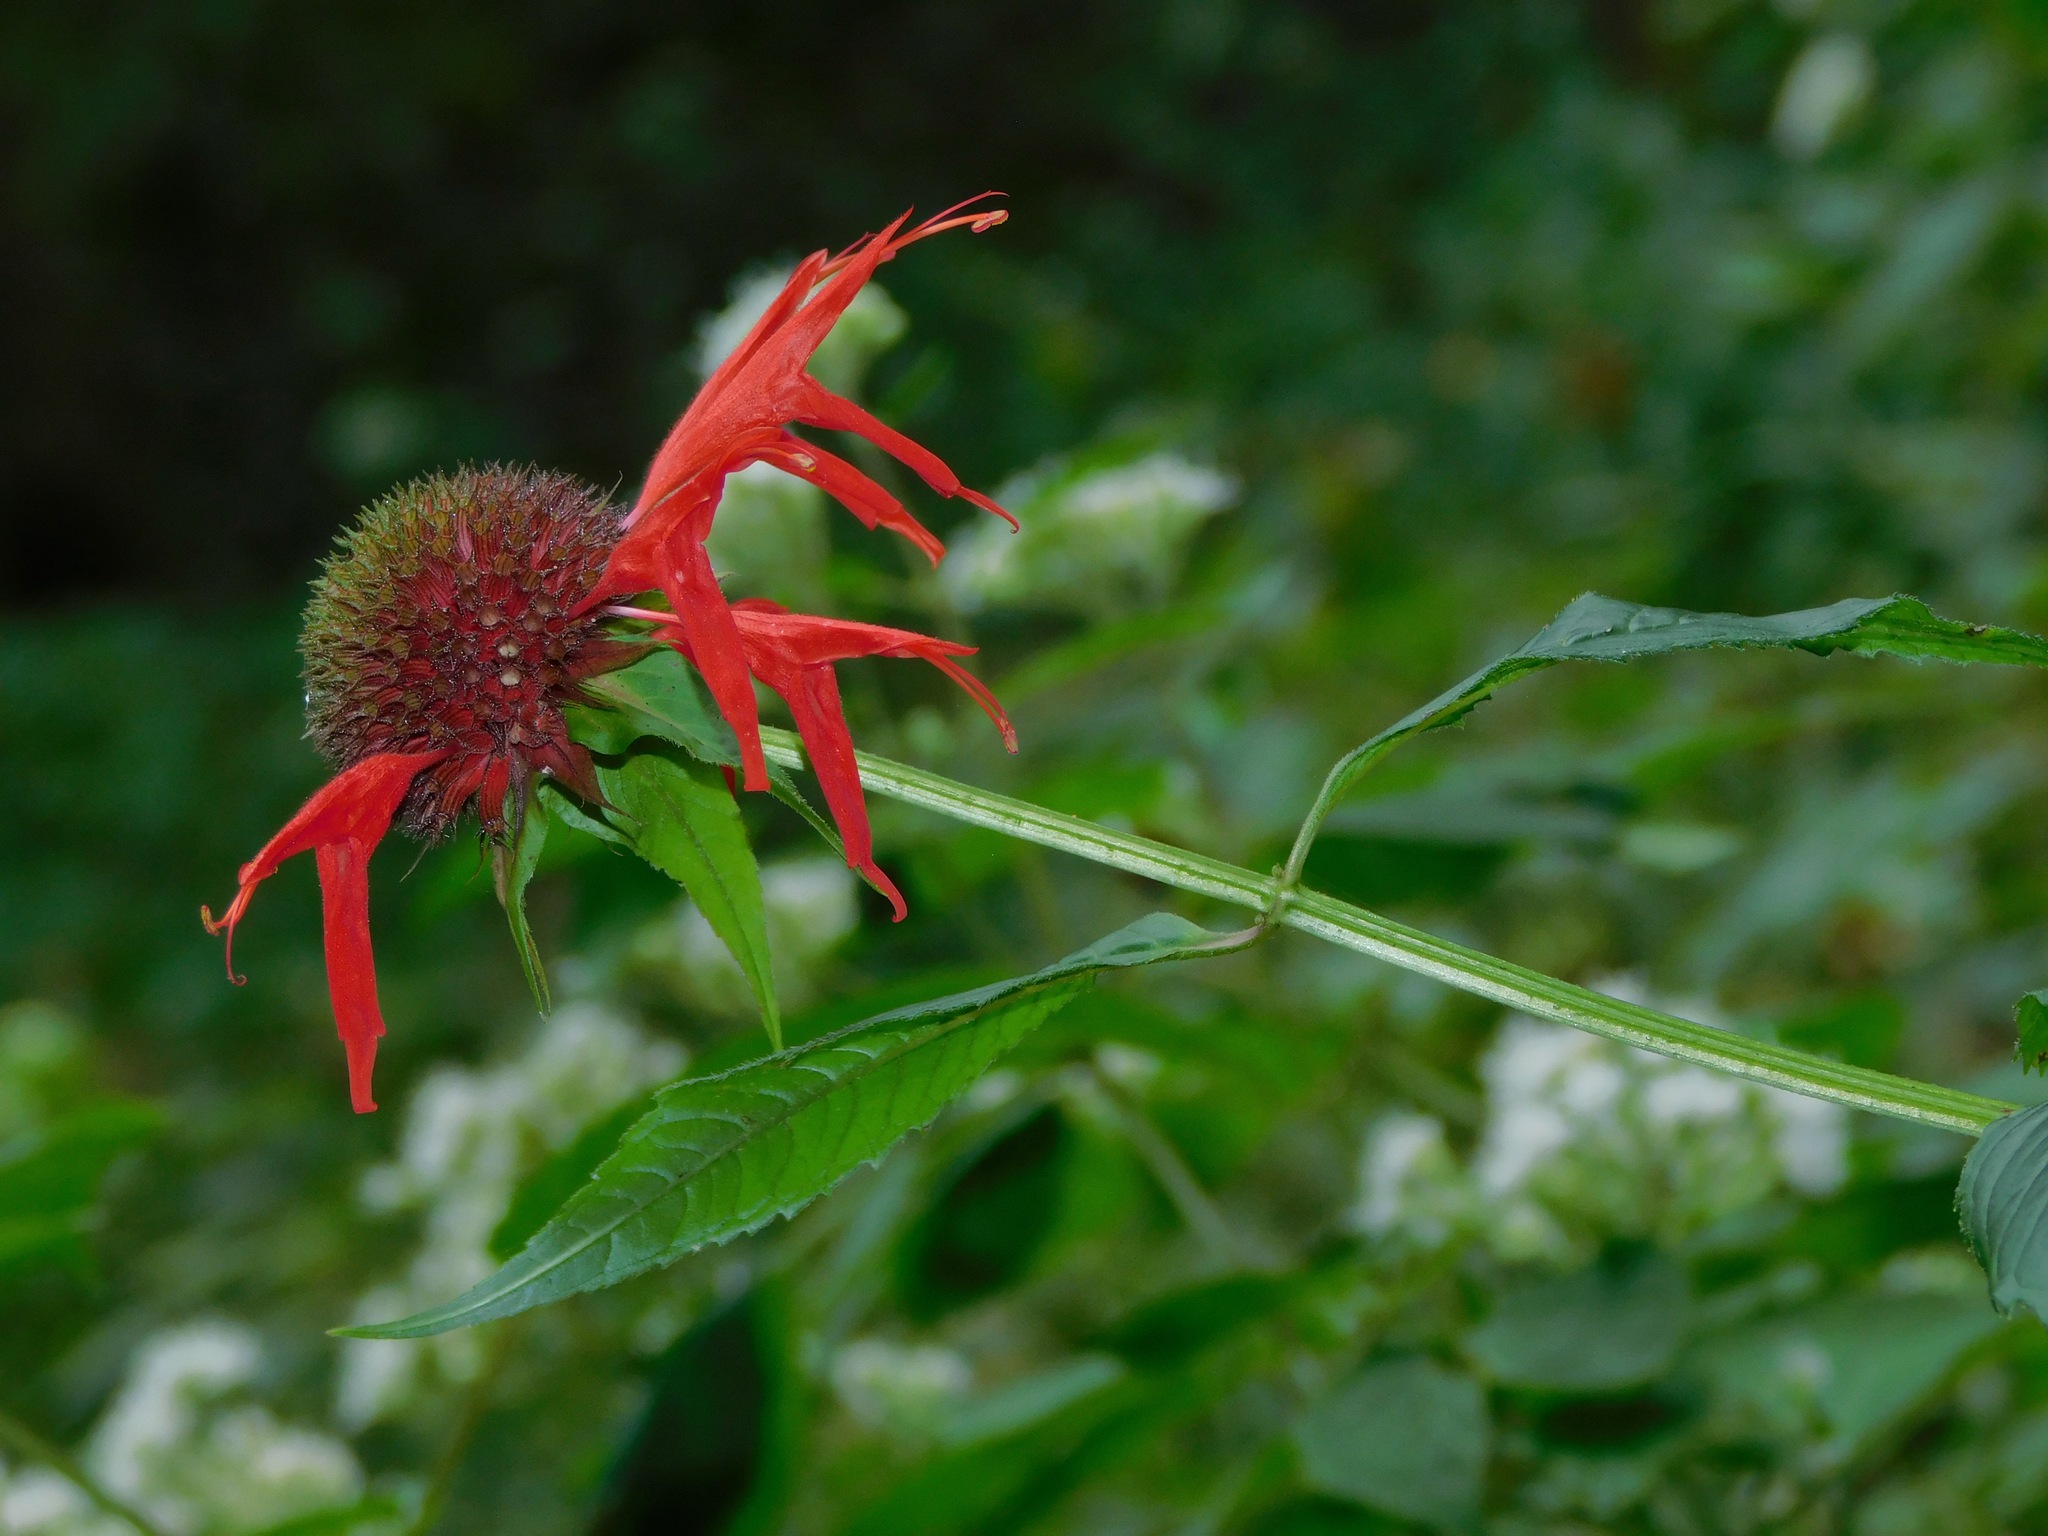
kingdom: Plantae
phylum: Tracheophyta
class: Magnoliopsida
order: Lamiales
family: Lamiaceae
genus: Monarda
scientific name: Monarda didyma
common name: Beebalm
